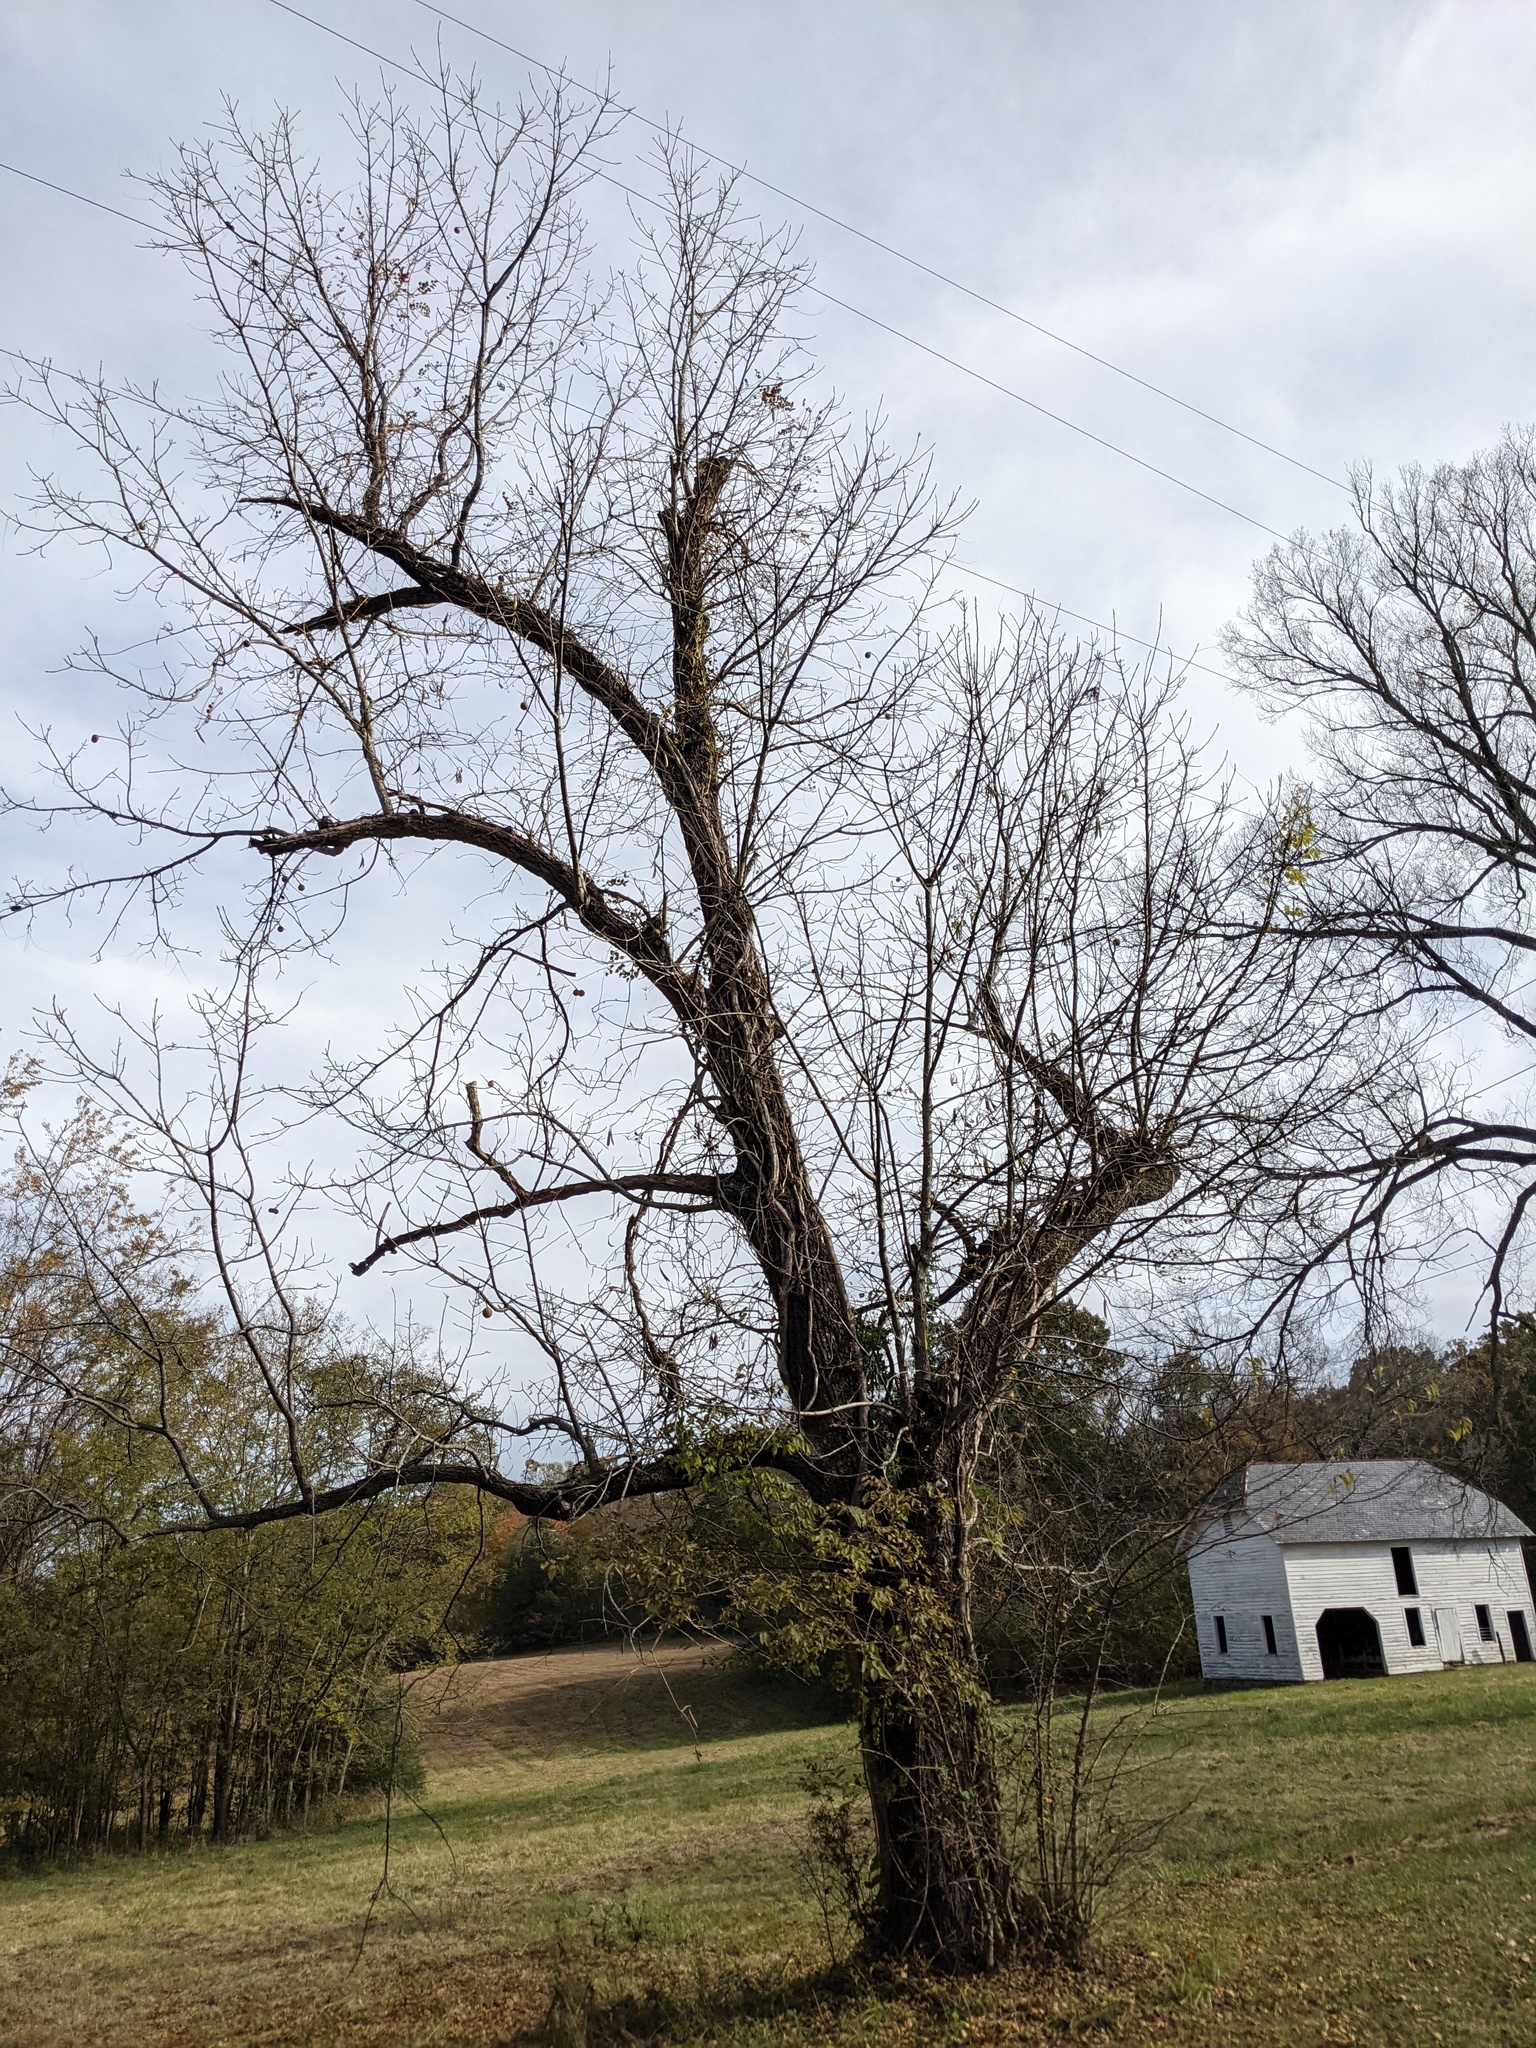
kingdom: Plantae
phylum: Tracheophyta
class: Magnoliopsida
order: Fagales
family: Juglandaceae
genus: Juglans
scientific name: Juglans nigra
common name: Black walnut
